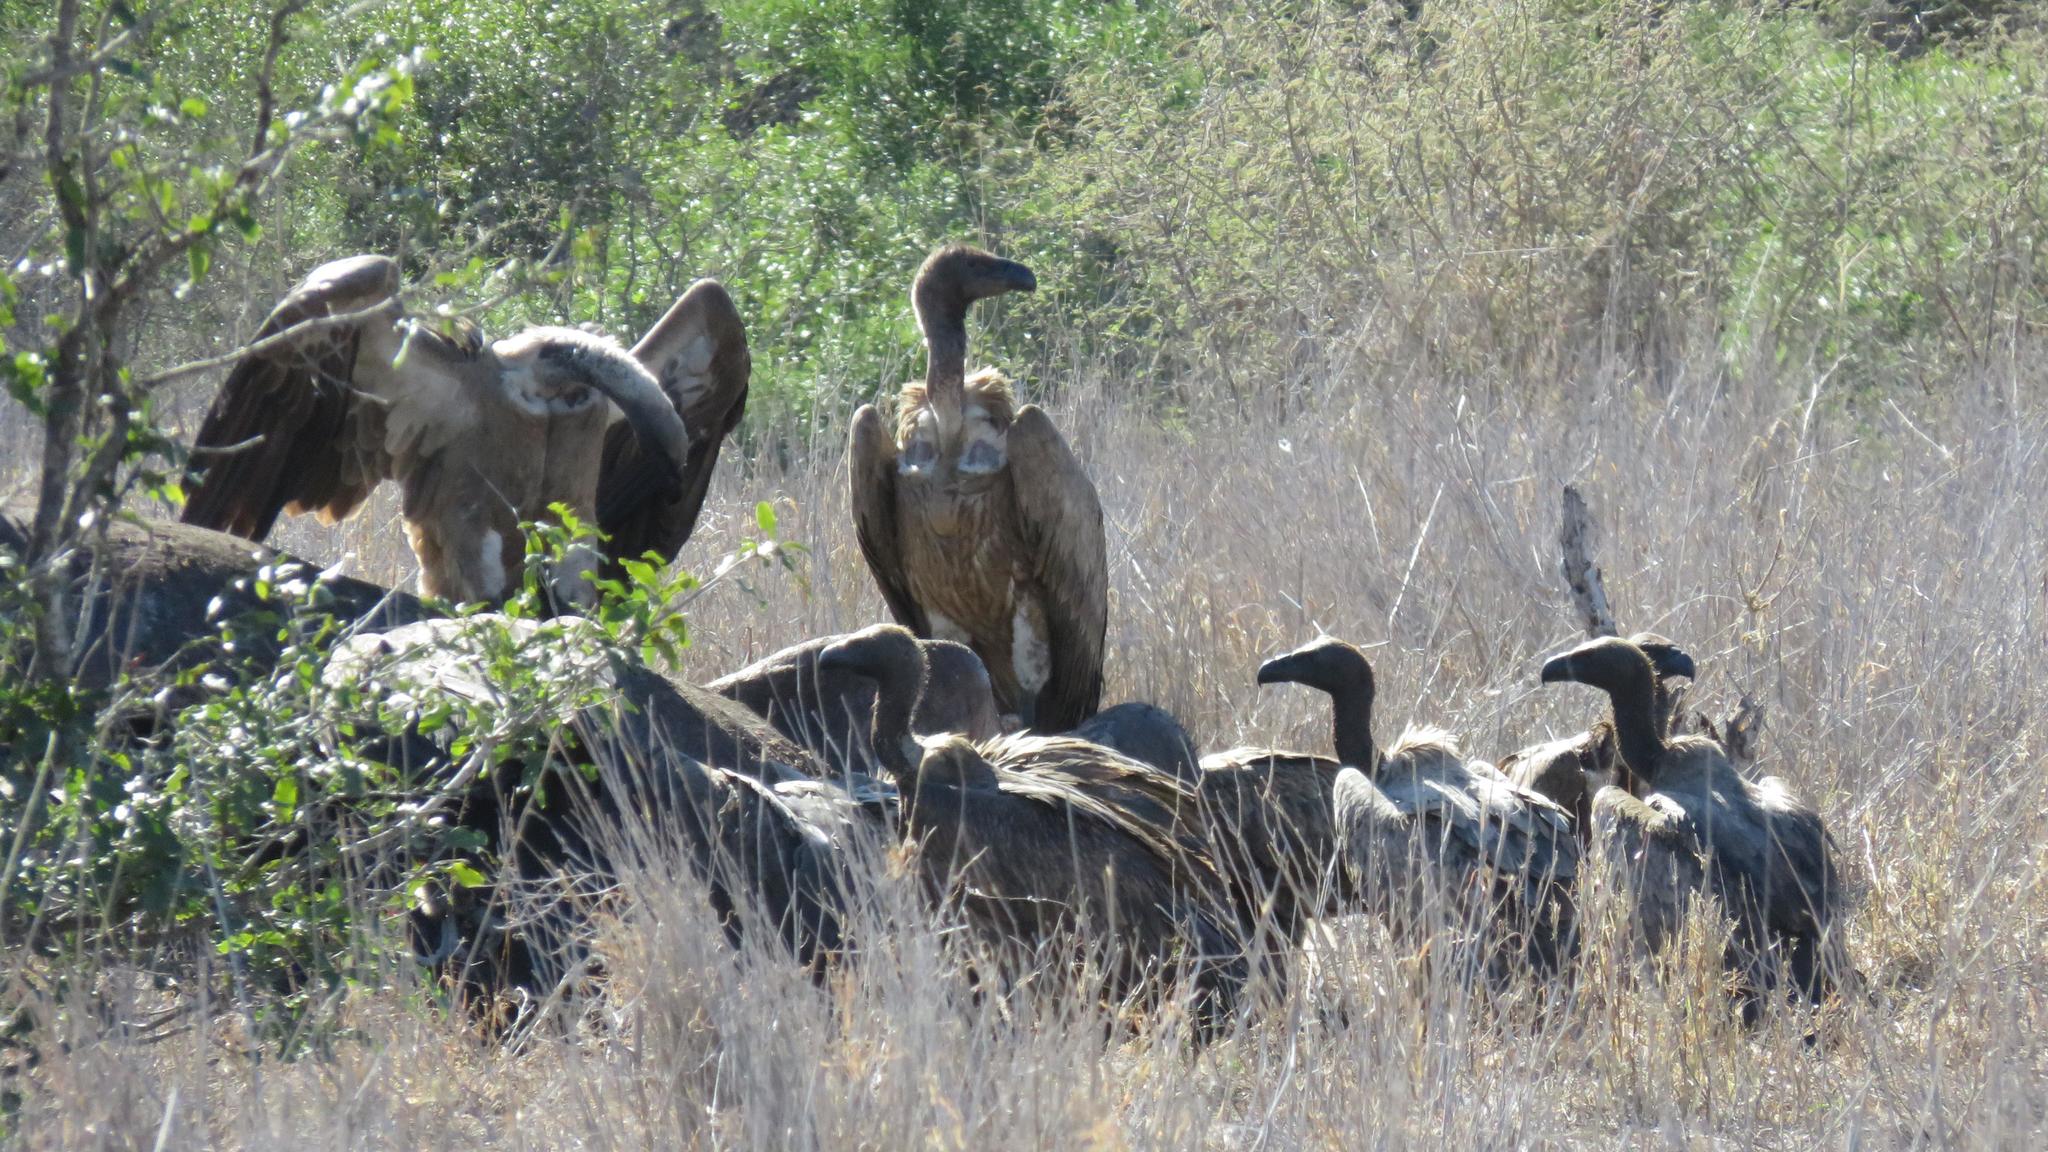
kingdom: Animalia
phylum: Chordata
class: Mammalia
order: Artiodactyla
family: Hippopotamidae
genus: Hippopotamus
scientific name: Hippopotamus amphibius
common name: Common hippopotamus
